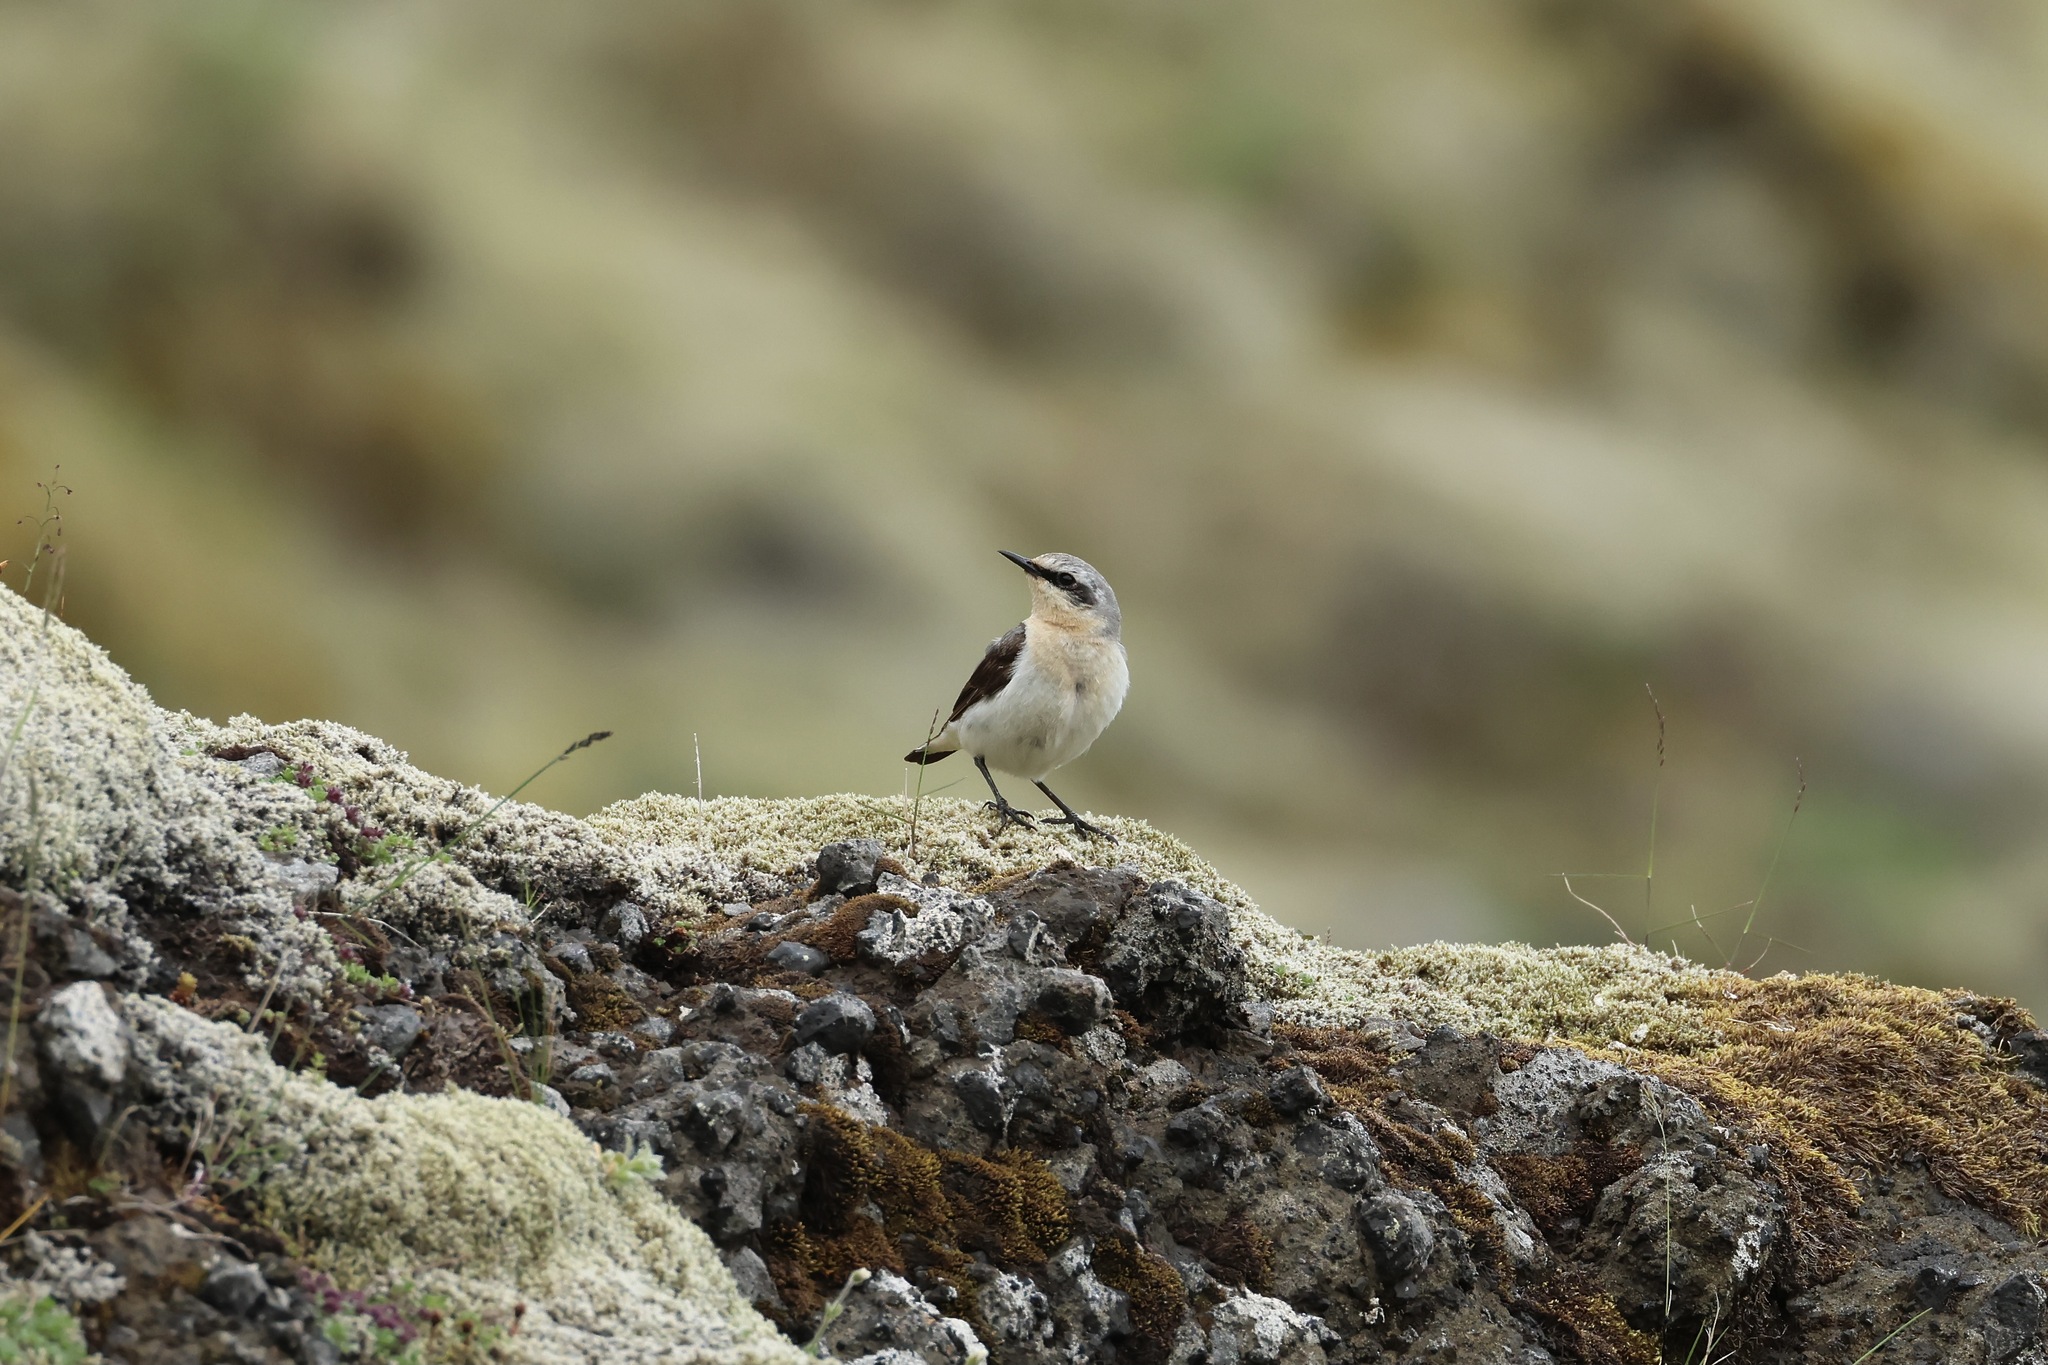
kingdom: Animalia
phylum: Chordata
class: Aves
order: Passeriformes
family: Muscicapidae
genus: Oenanthe
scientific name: Oenanthe oenanthe
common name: Northern wheatear
